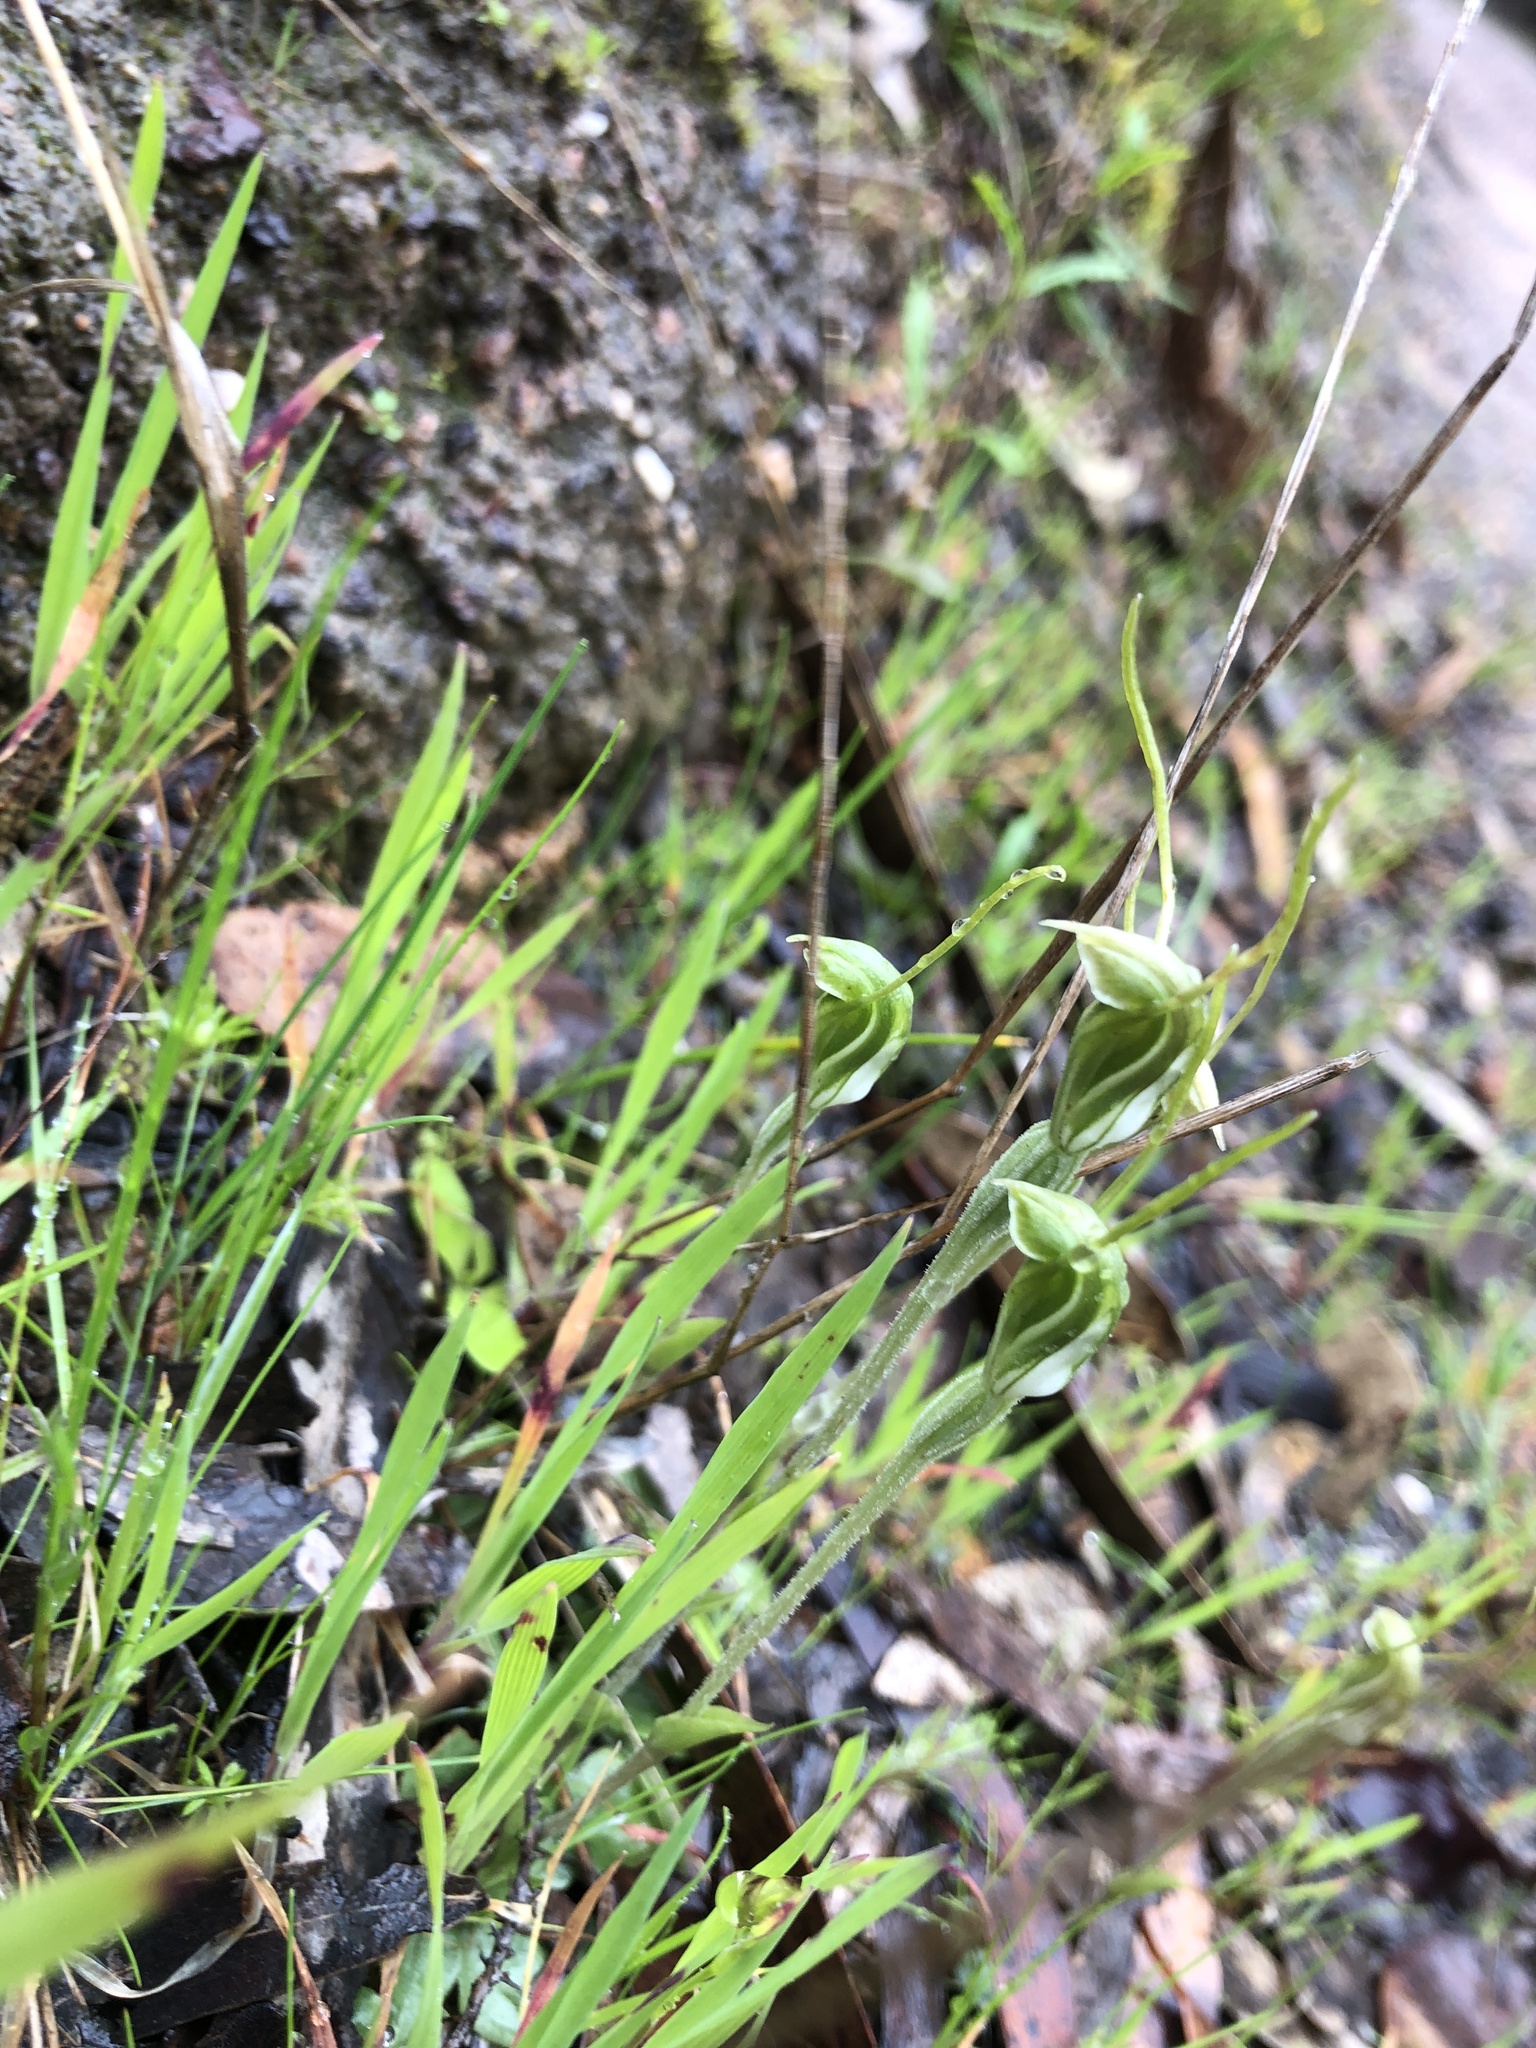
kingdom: Plantae
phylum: Tracheophyta
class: Liliopsida
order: Asparagales
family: Orchidaceae
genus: Pterostylis
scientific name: Pterostylis nana
